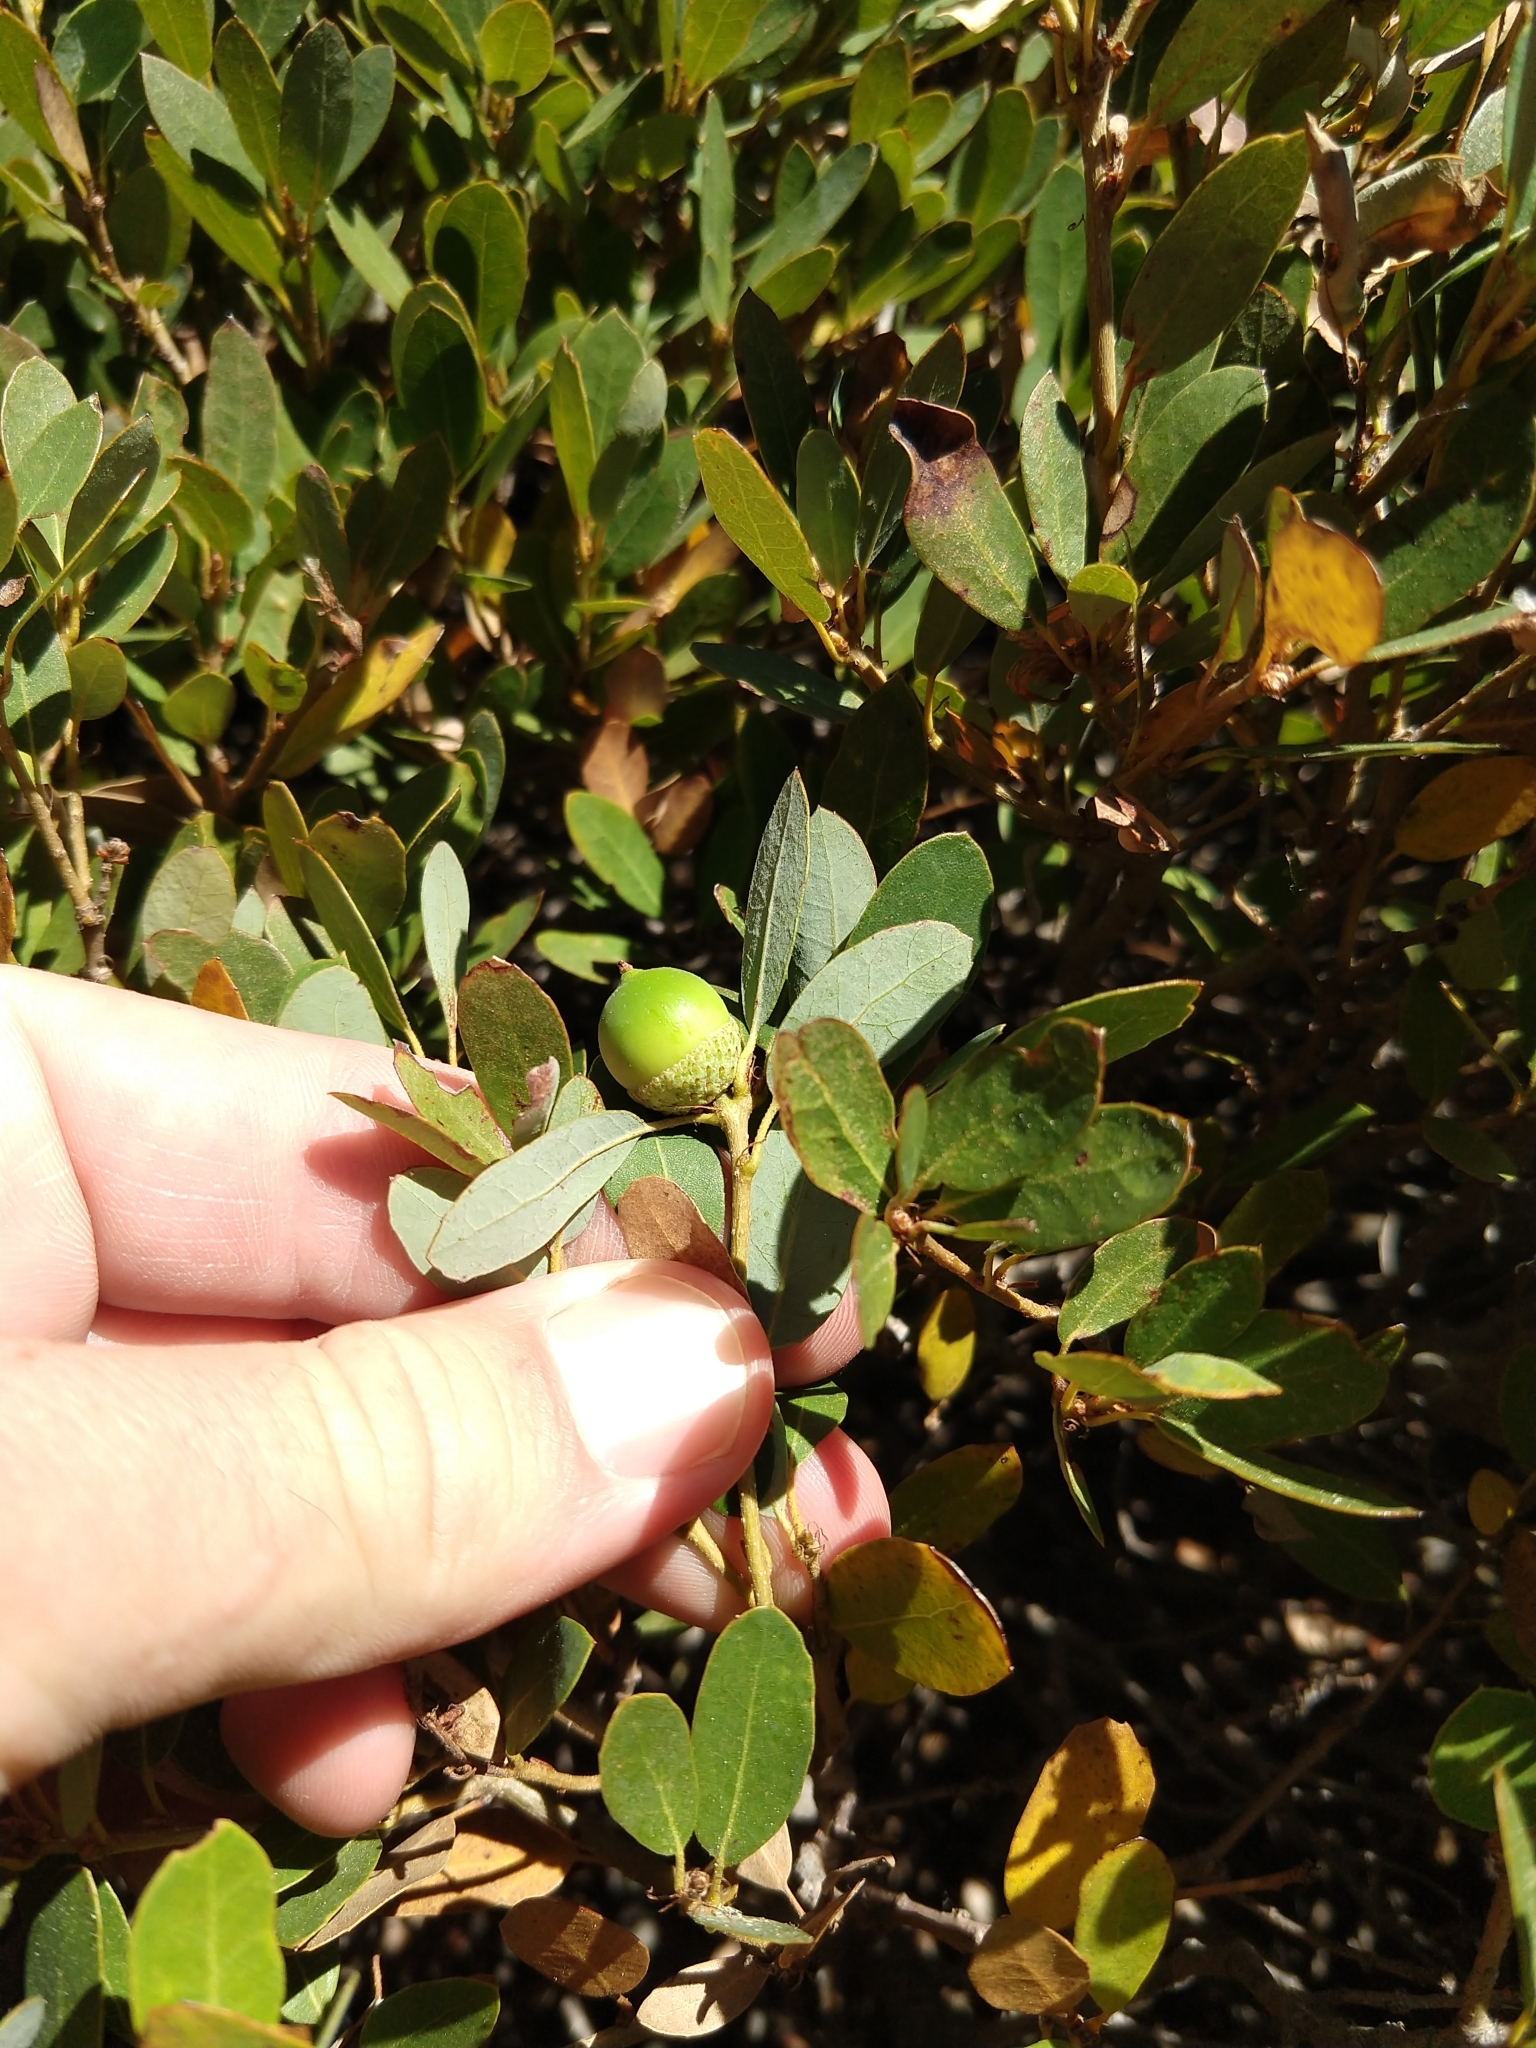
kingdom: Plantae
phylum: Tracheophyta
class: Magnoliopsida
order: Fagales
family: Fagaceae
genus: Quercus
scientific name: Quercus vacciniifolia
